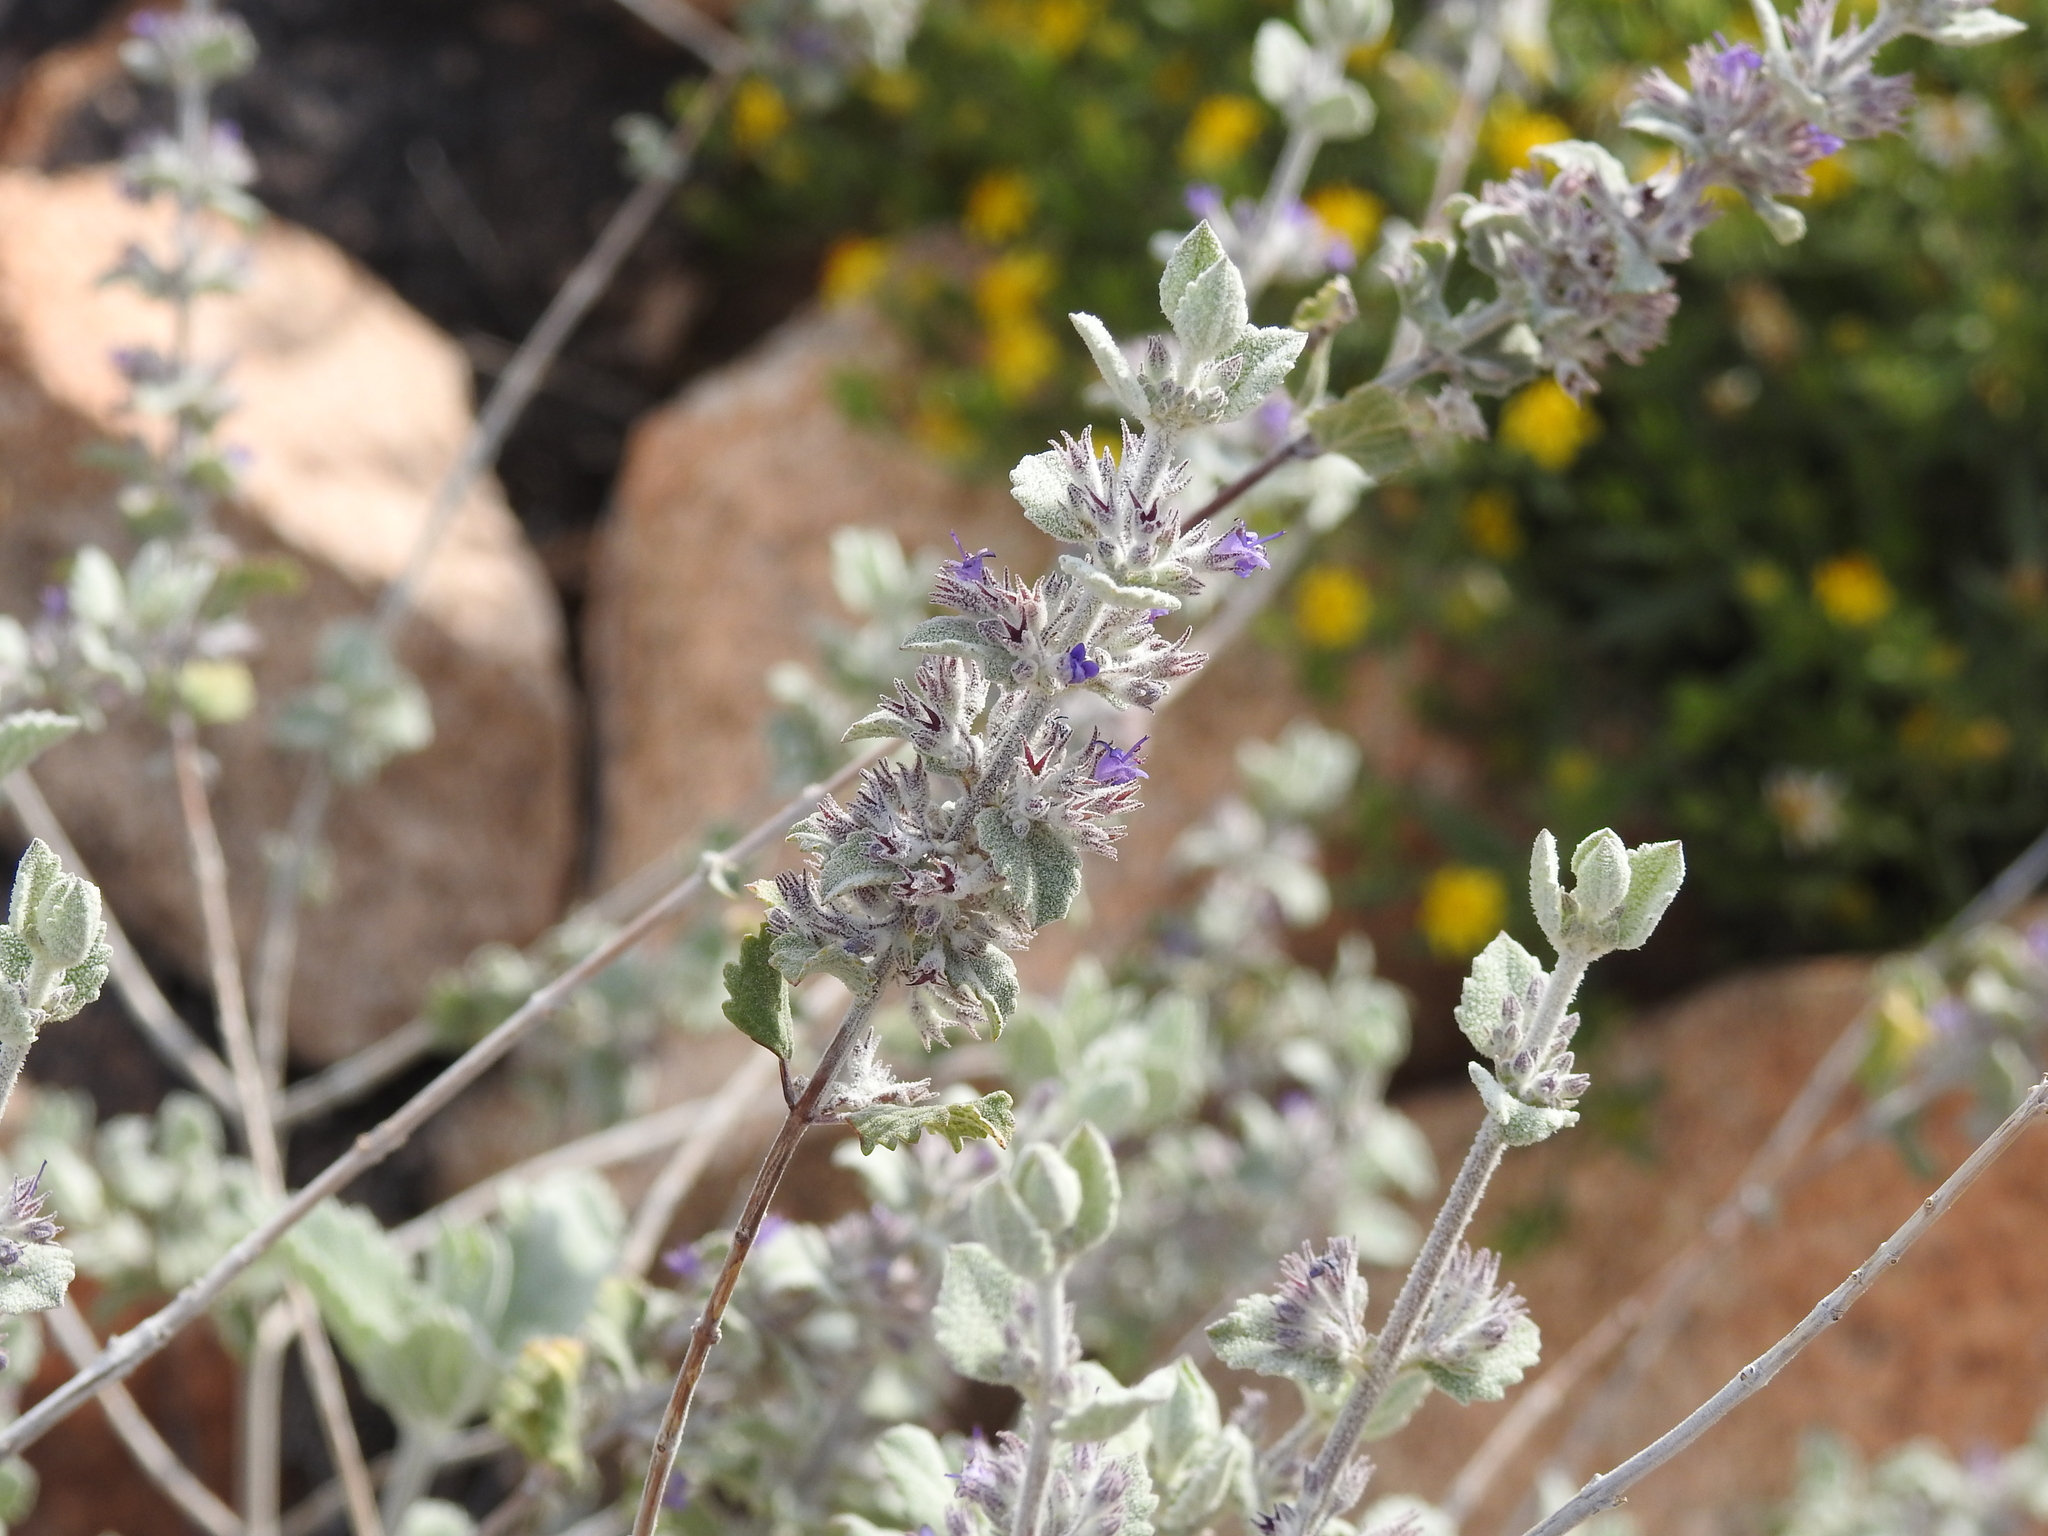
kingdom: Plantae
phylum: Tracheophyta
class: Magnoliopsida
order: Lamiales
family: Lamiaceae
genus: Condea
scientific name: Condea emoryi
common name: Chia
